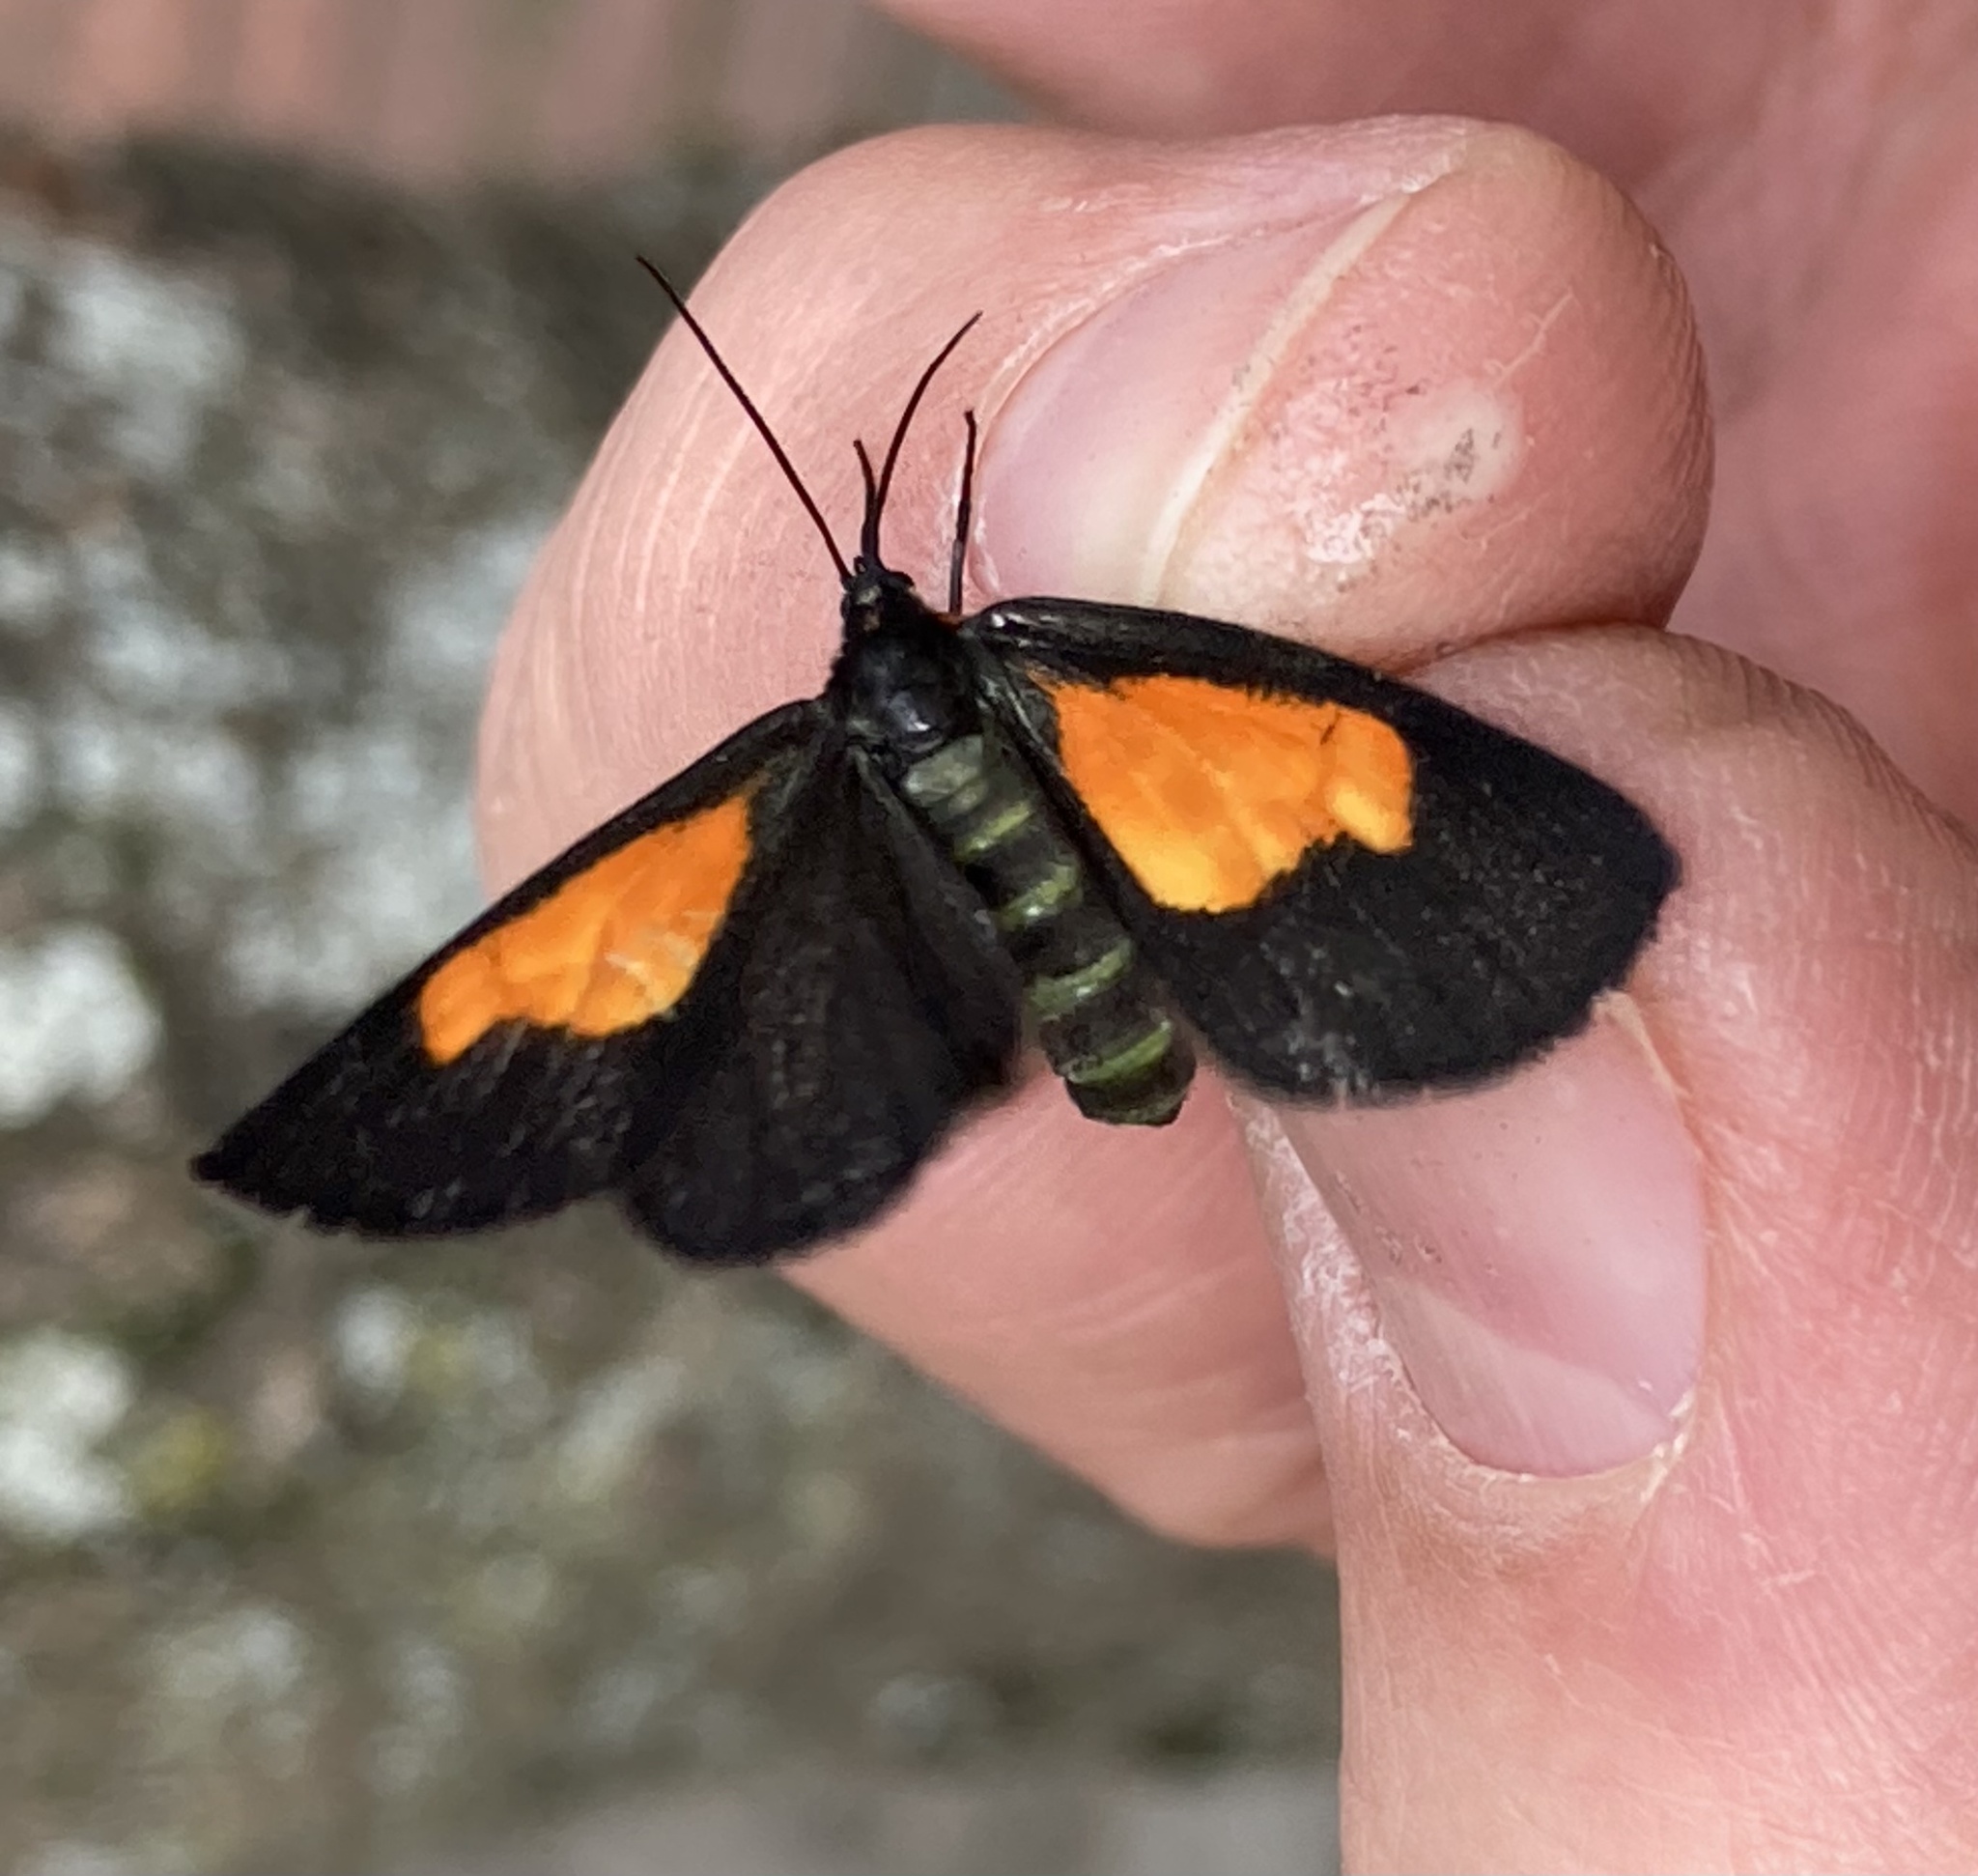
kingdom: Animalia
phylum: Arthropoda
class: Insecta
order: Lepidoptera
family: Geometridae
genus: Drymoea
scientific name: Drymoea
